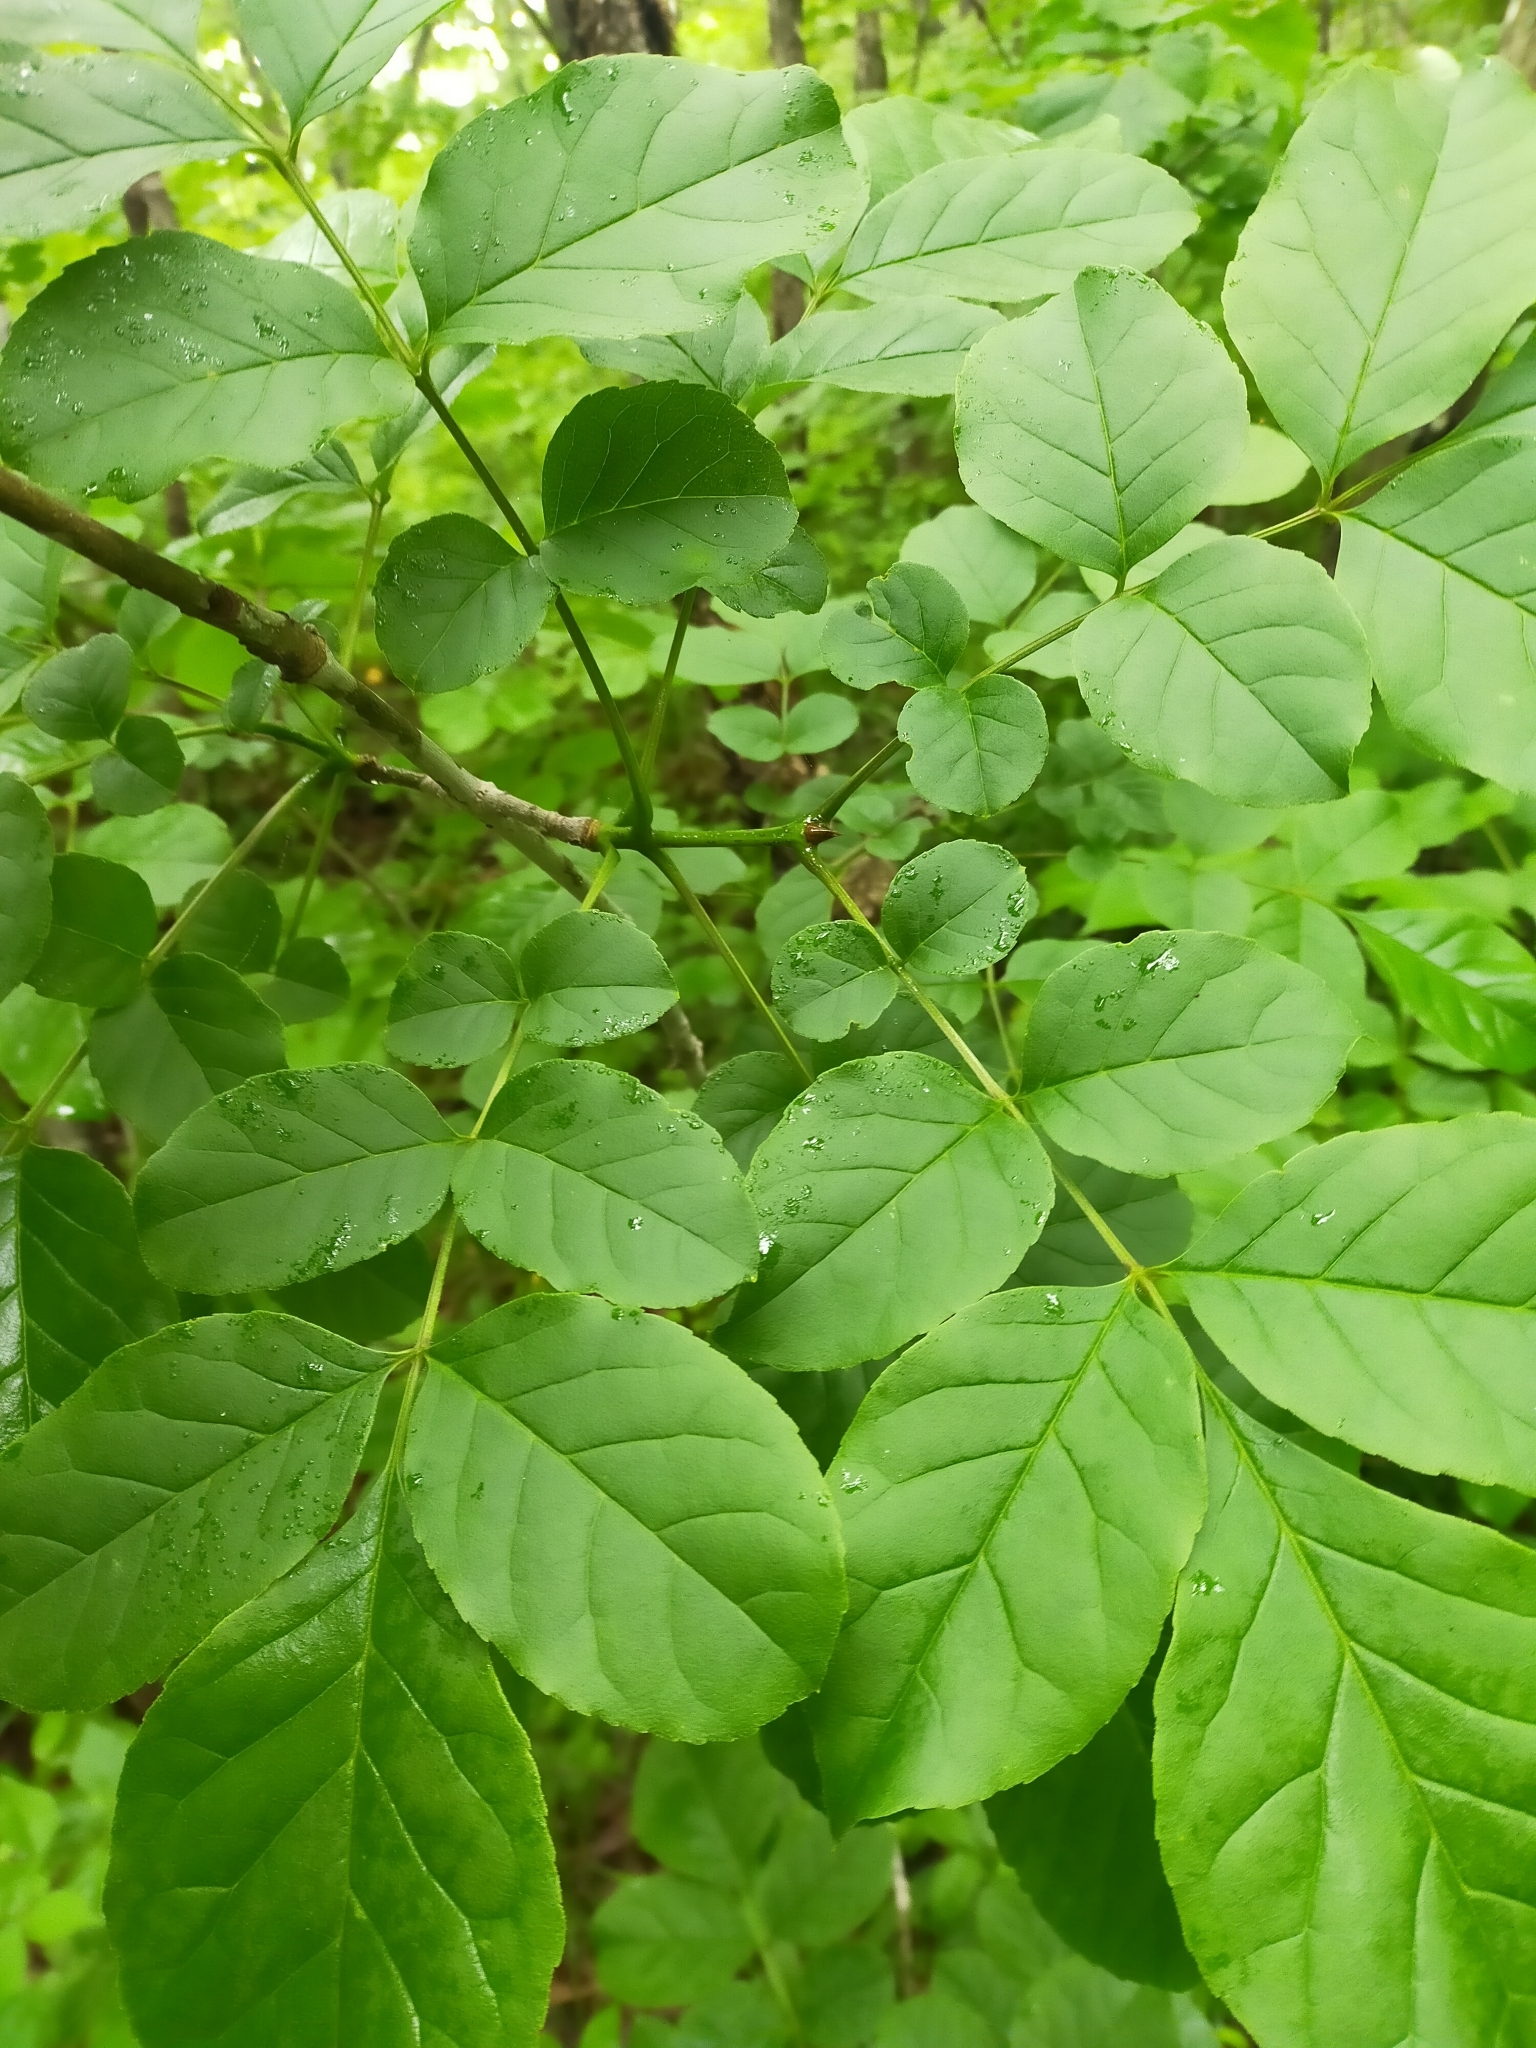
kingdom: Plantae
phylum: Tracheophyta
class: Magnoliopsida
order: Lamiales
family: Oleaceae
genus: Fraxinus
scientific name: Fraxinus chinensis
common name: Chinese ash
